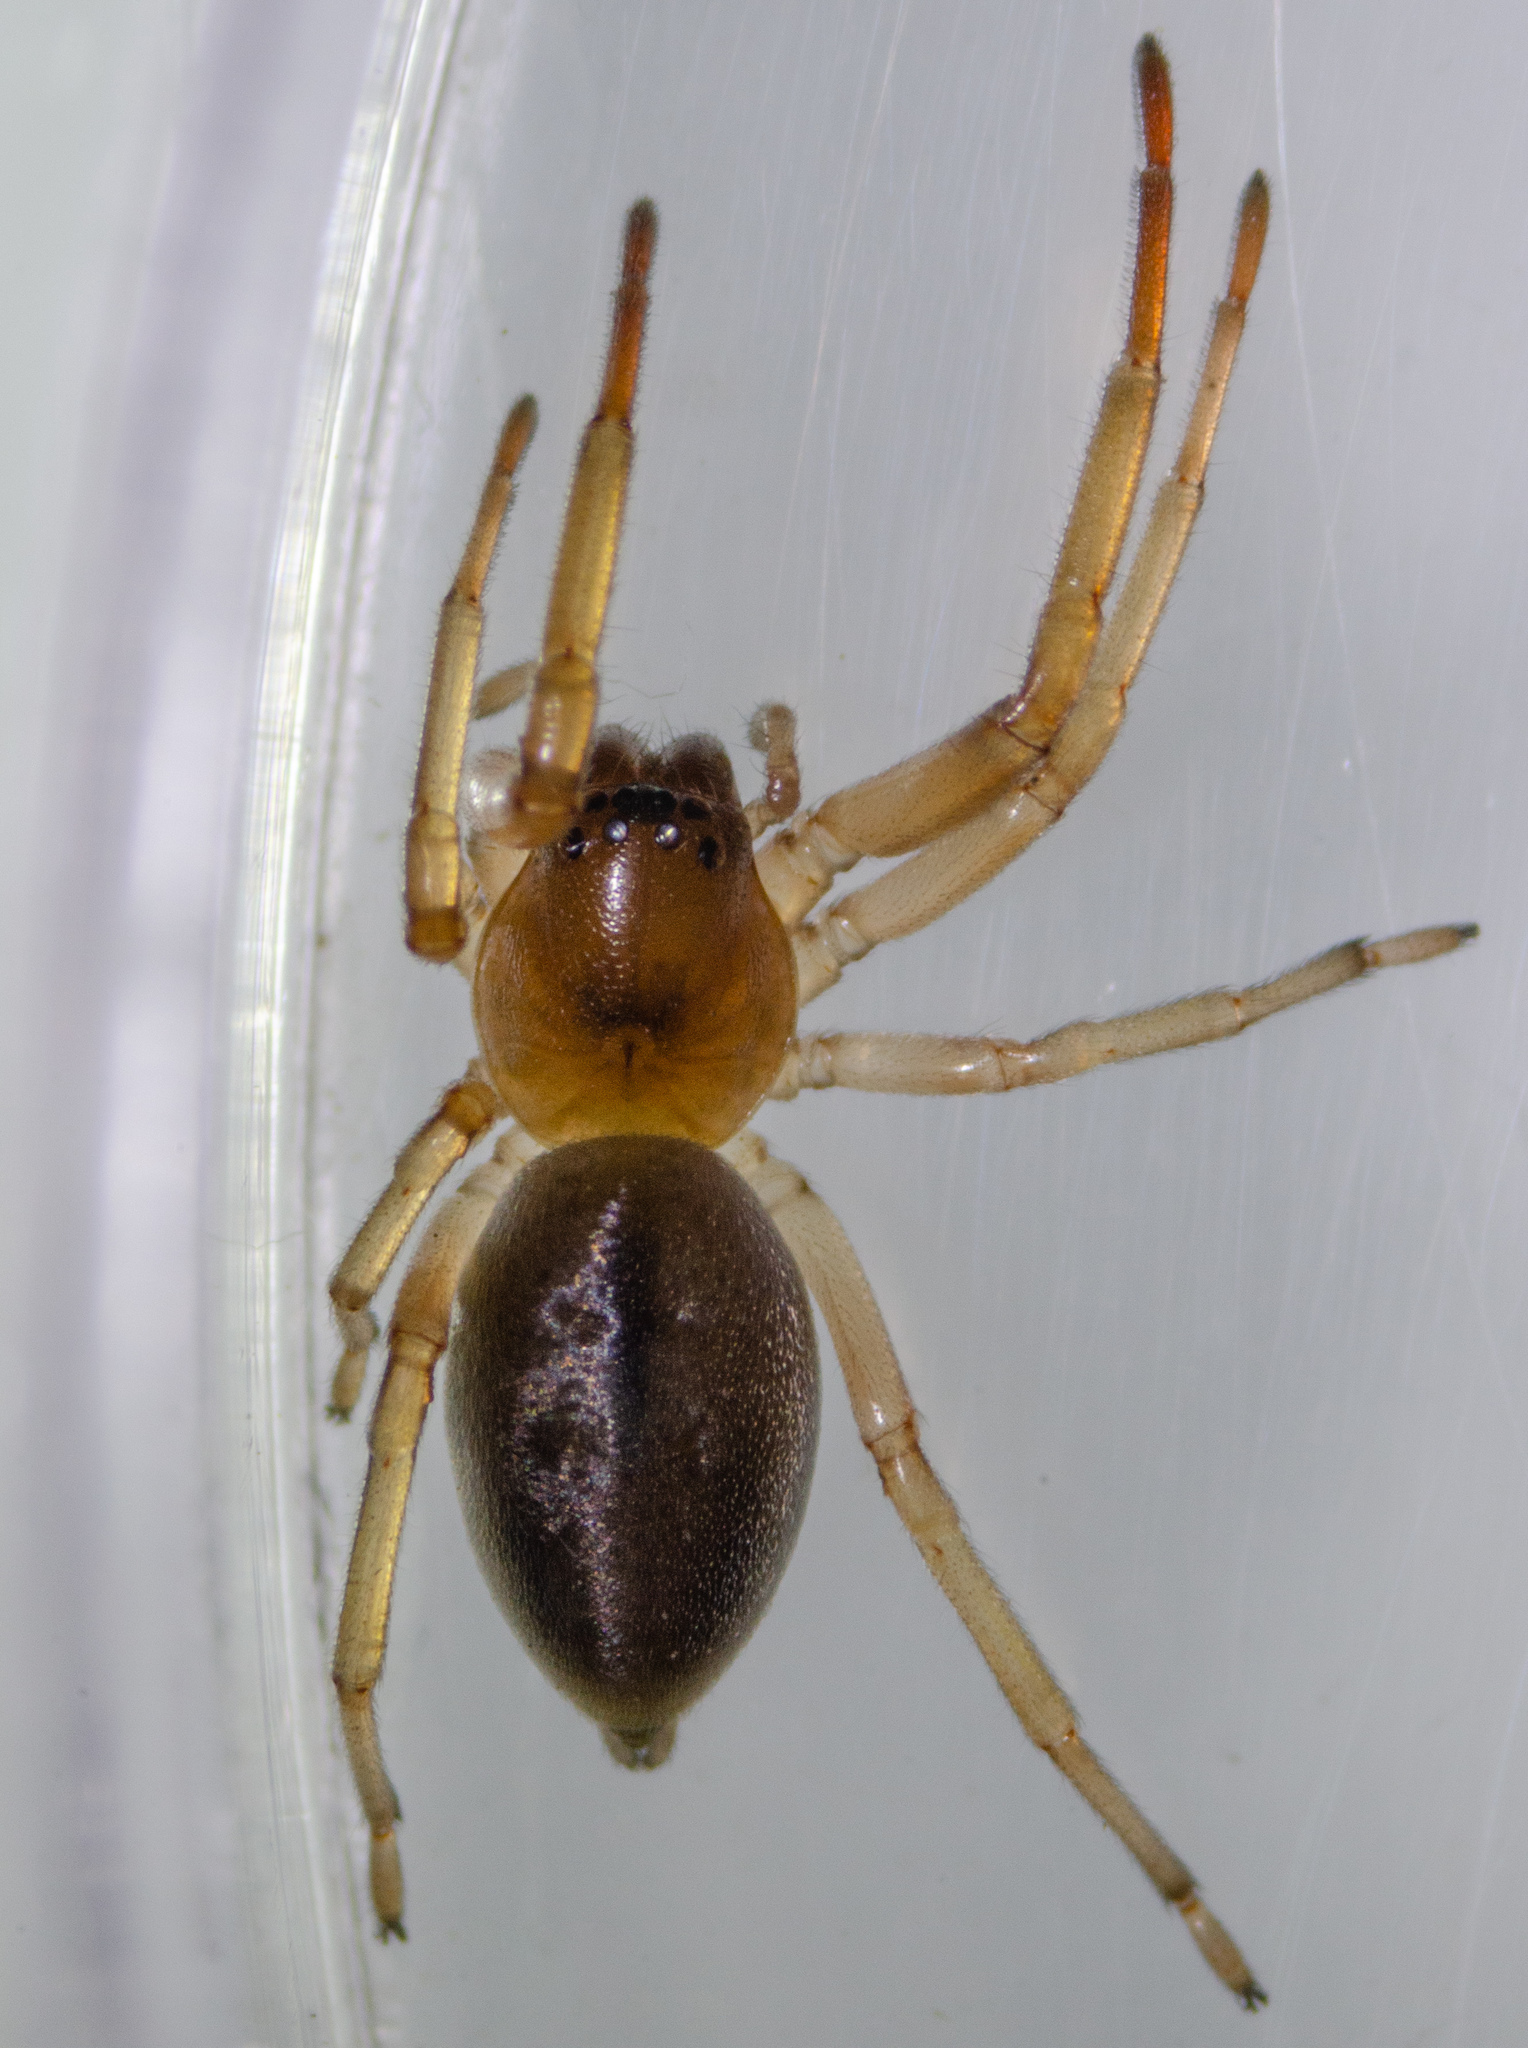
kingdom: Animalia
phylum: Arthropoda
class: Arachnida
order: Araneae
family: Trachelidae
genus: Trachelas
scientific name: Trachelas pacificus
